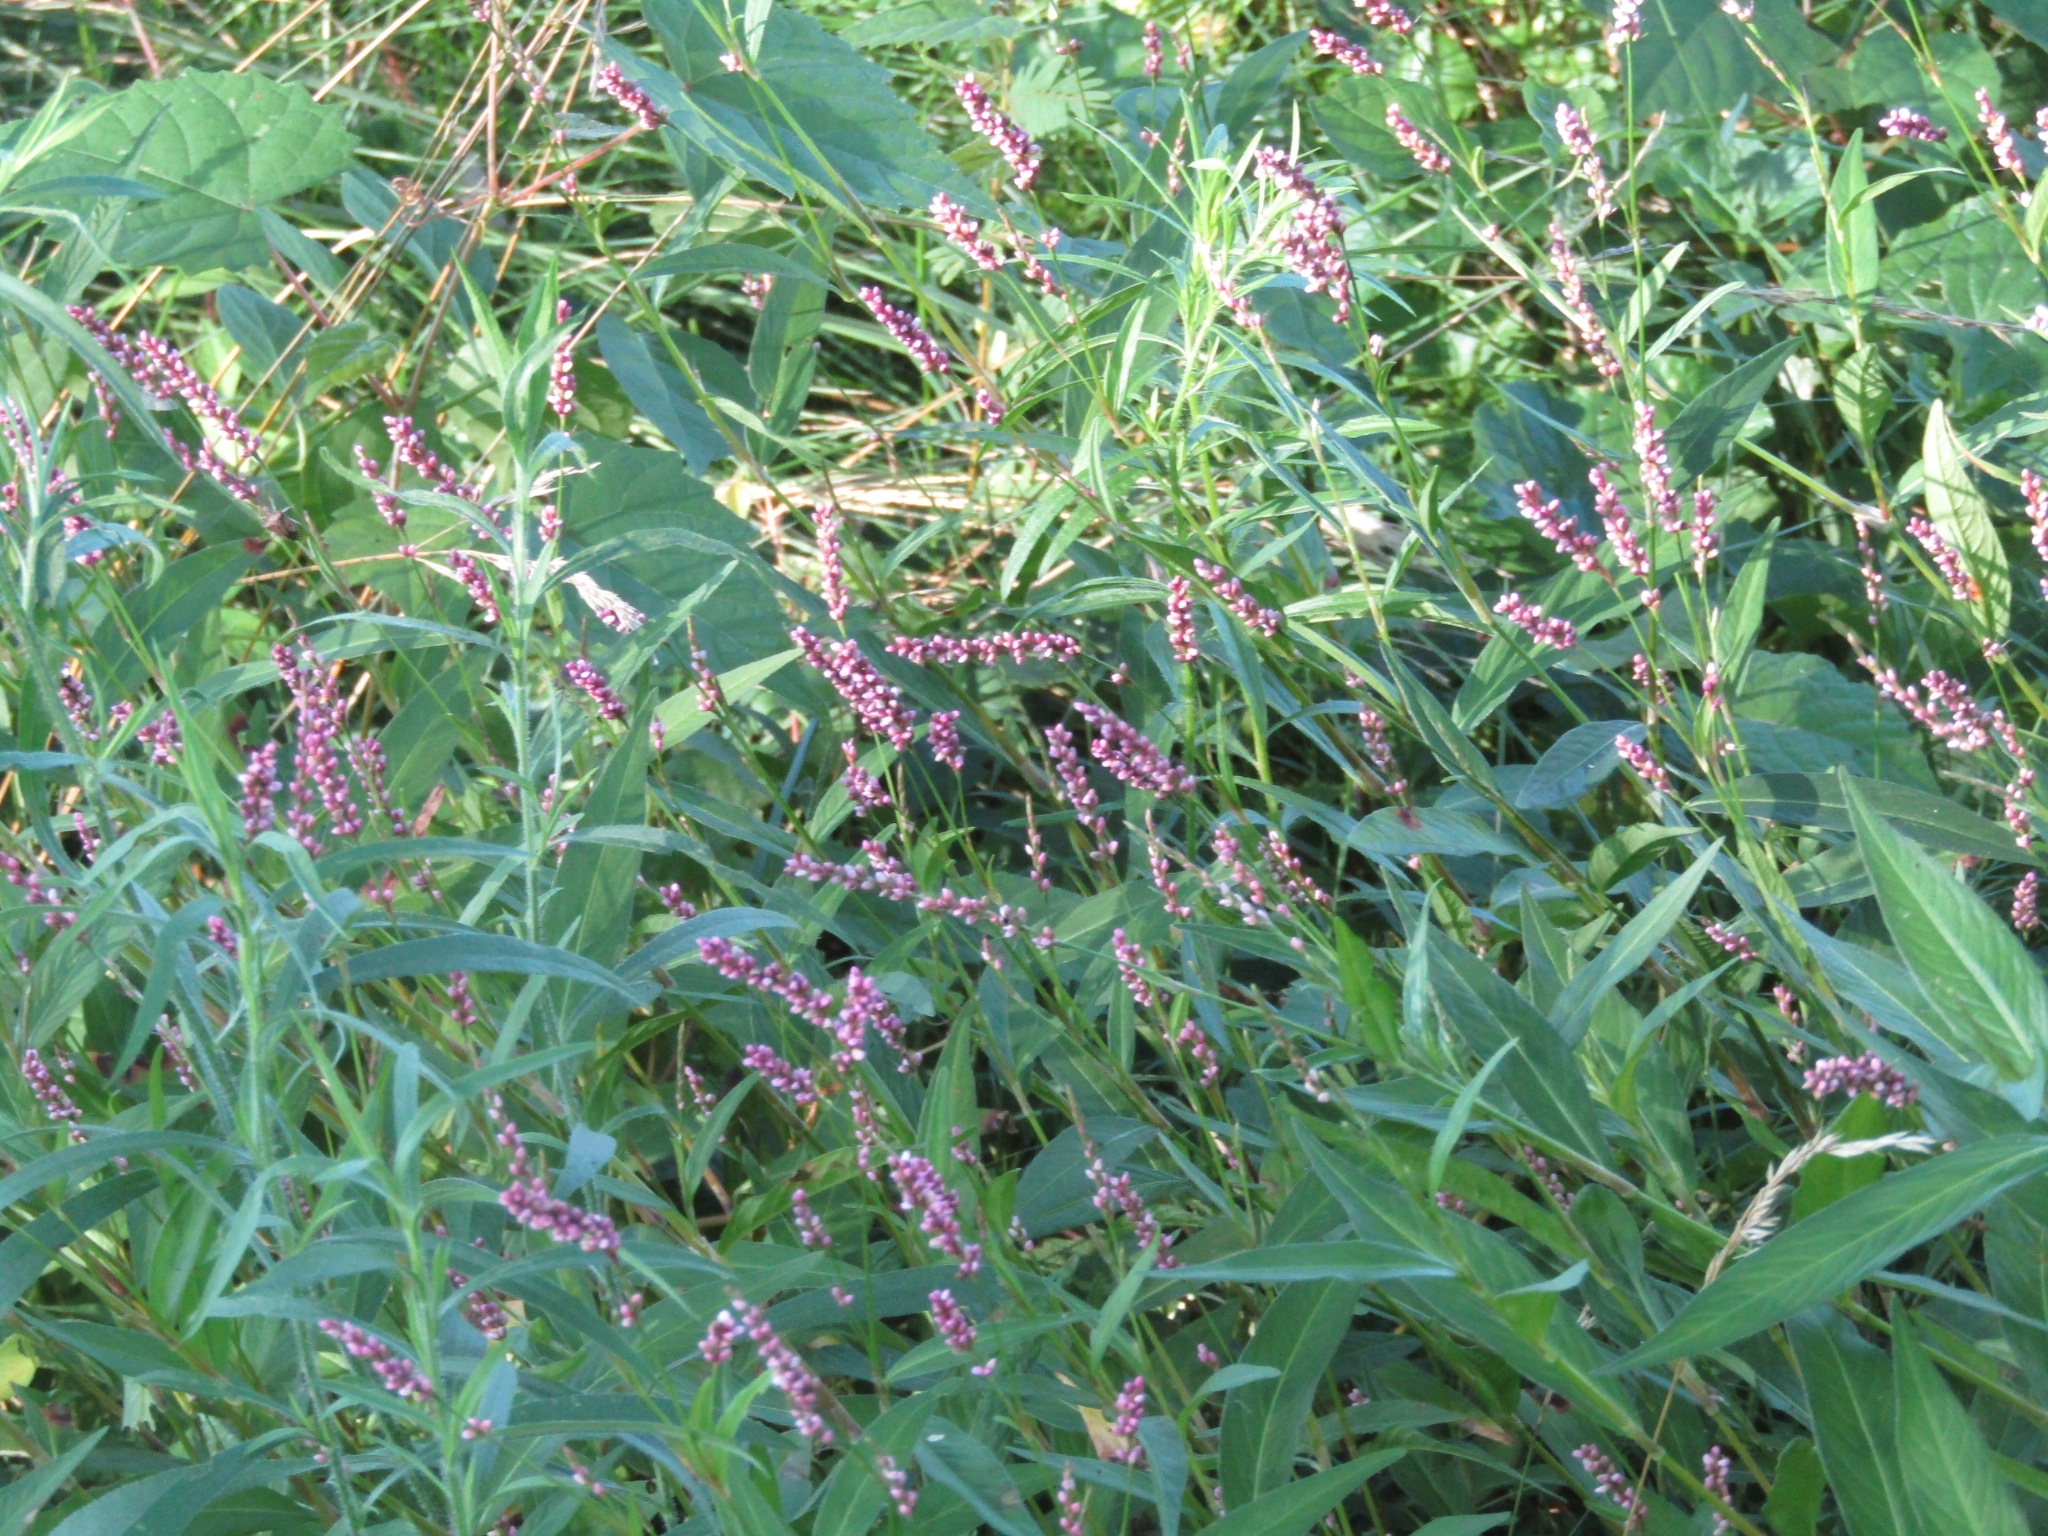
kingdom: Plantae
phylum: Tracheophyta
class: Magnoliopsida
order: Caryophyllales
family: Polygonaceae
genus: Persicaria
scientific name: Persicaria longiseta
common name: Bristly lady's-thumb
